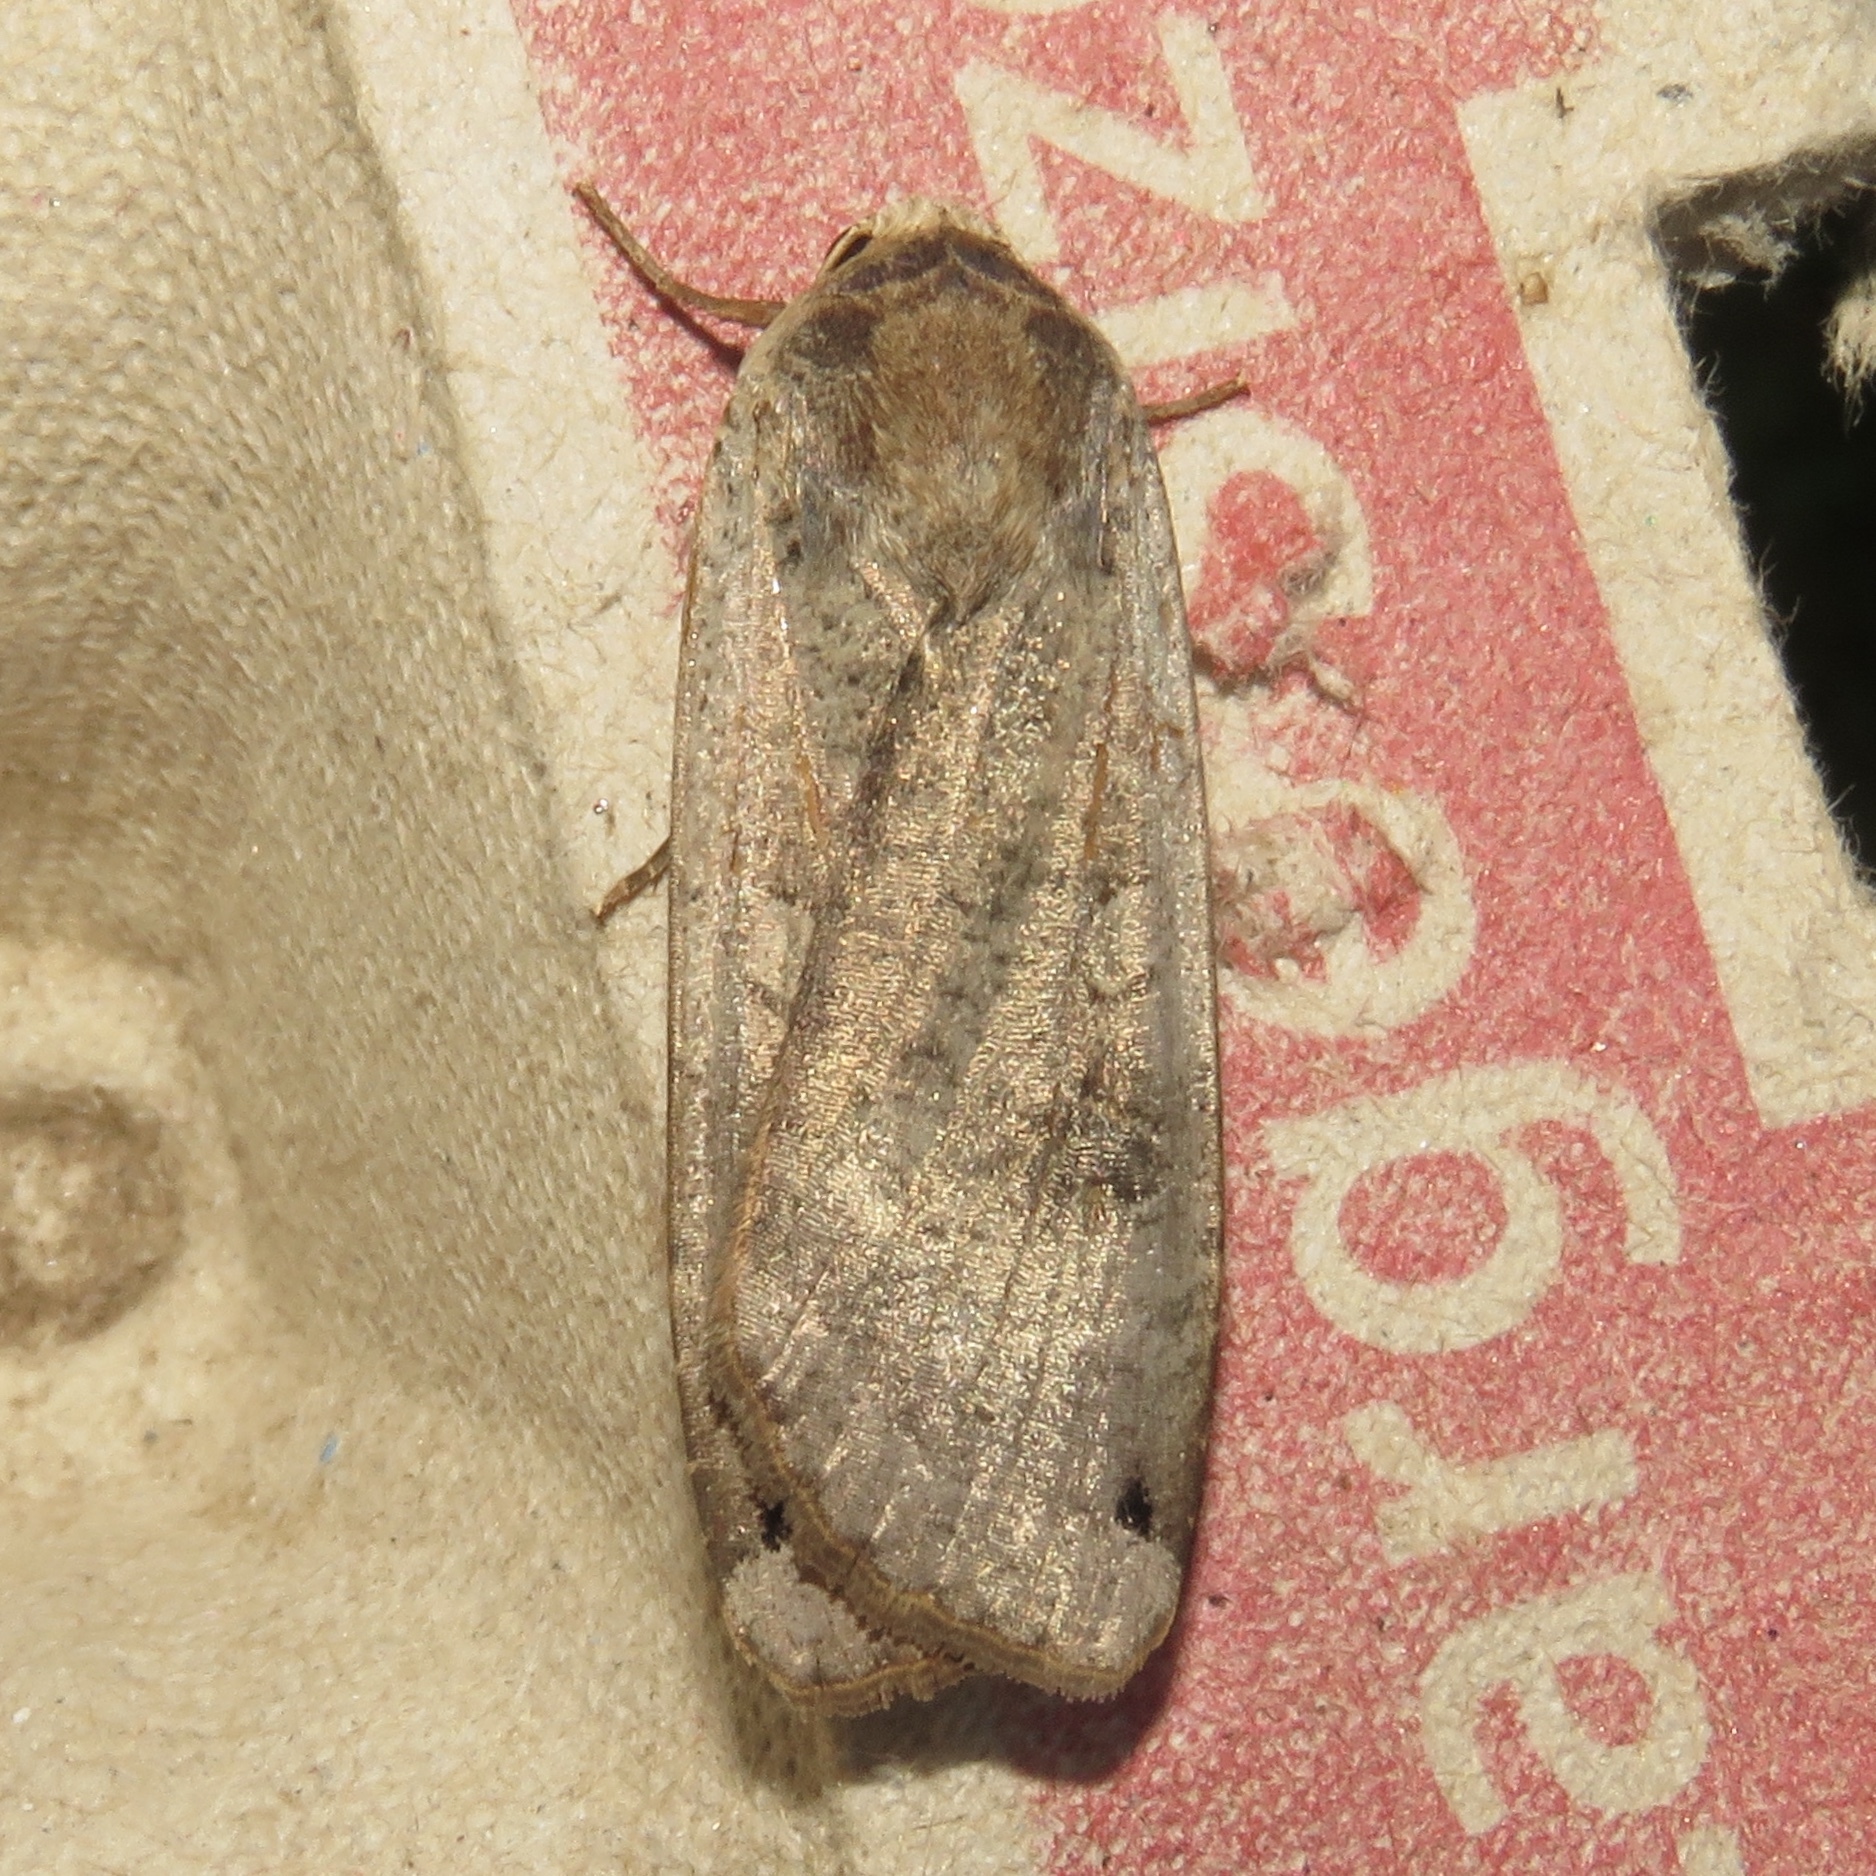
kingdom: Animalia
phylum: Arthropoda
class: Insecta
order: Lepidoptera
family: Noctuidae
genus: Noctua
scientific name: Noctua pronuba
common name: Large yellow underwing
